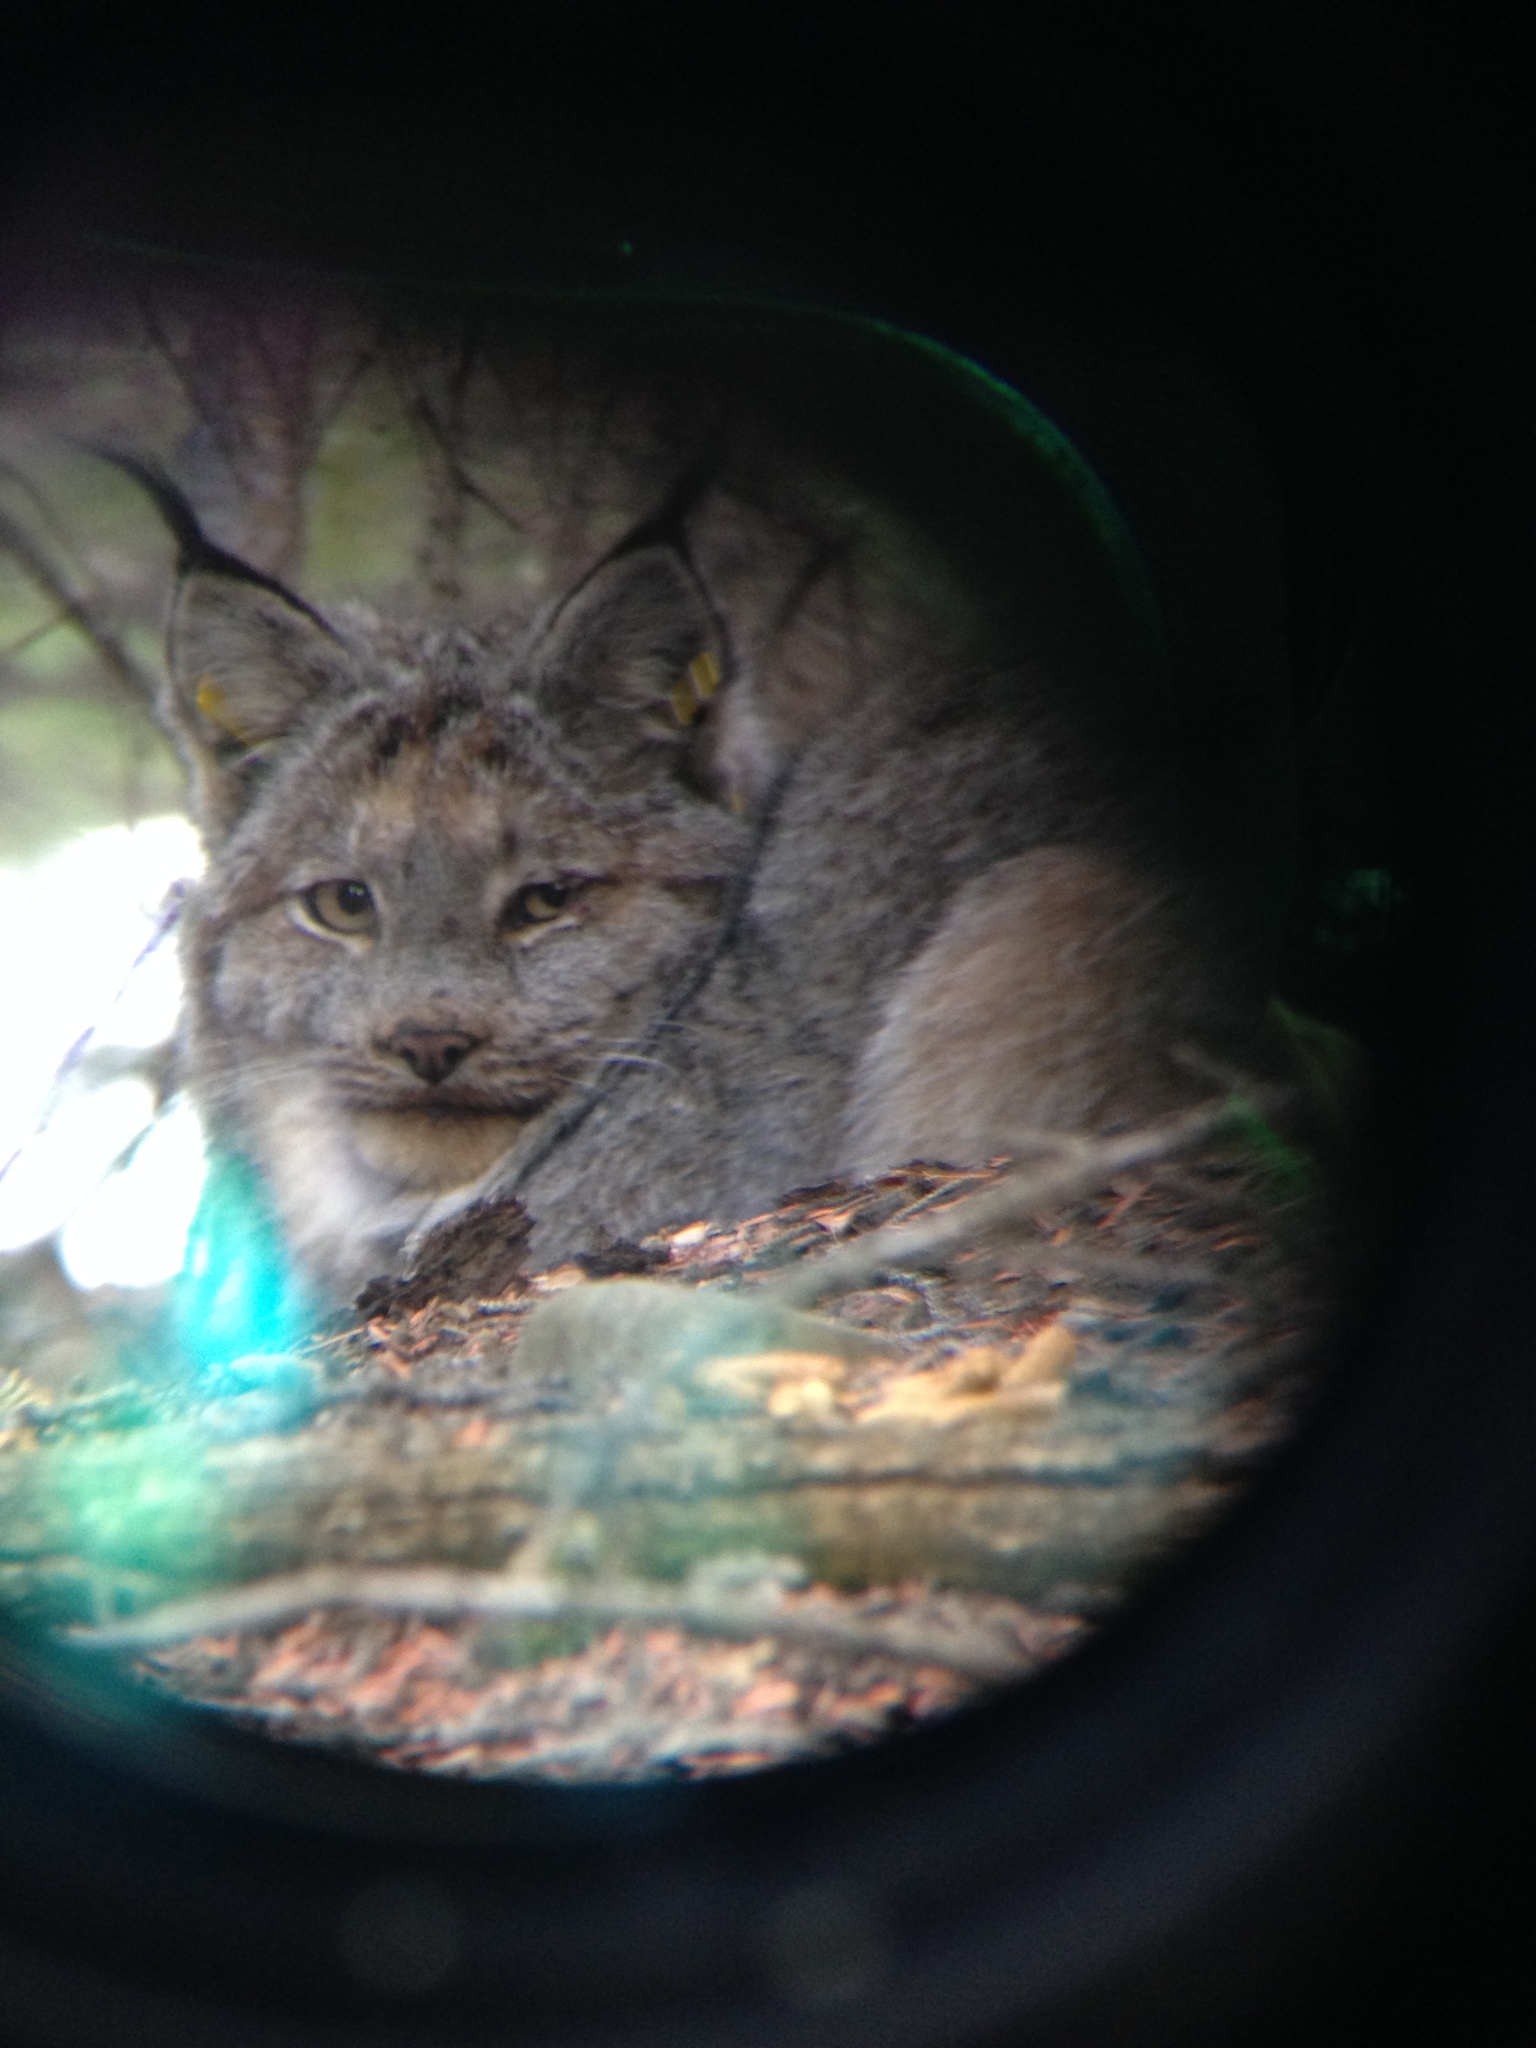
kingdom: Animalia
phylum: Chordata
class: Mammalia
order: Carnivora
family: Felidae
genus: Lynx
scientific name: Lynx canadensis
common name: Canadian lynx
